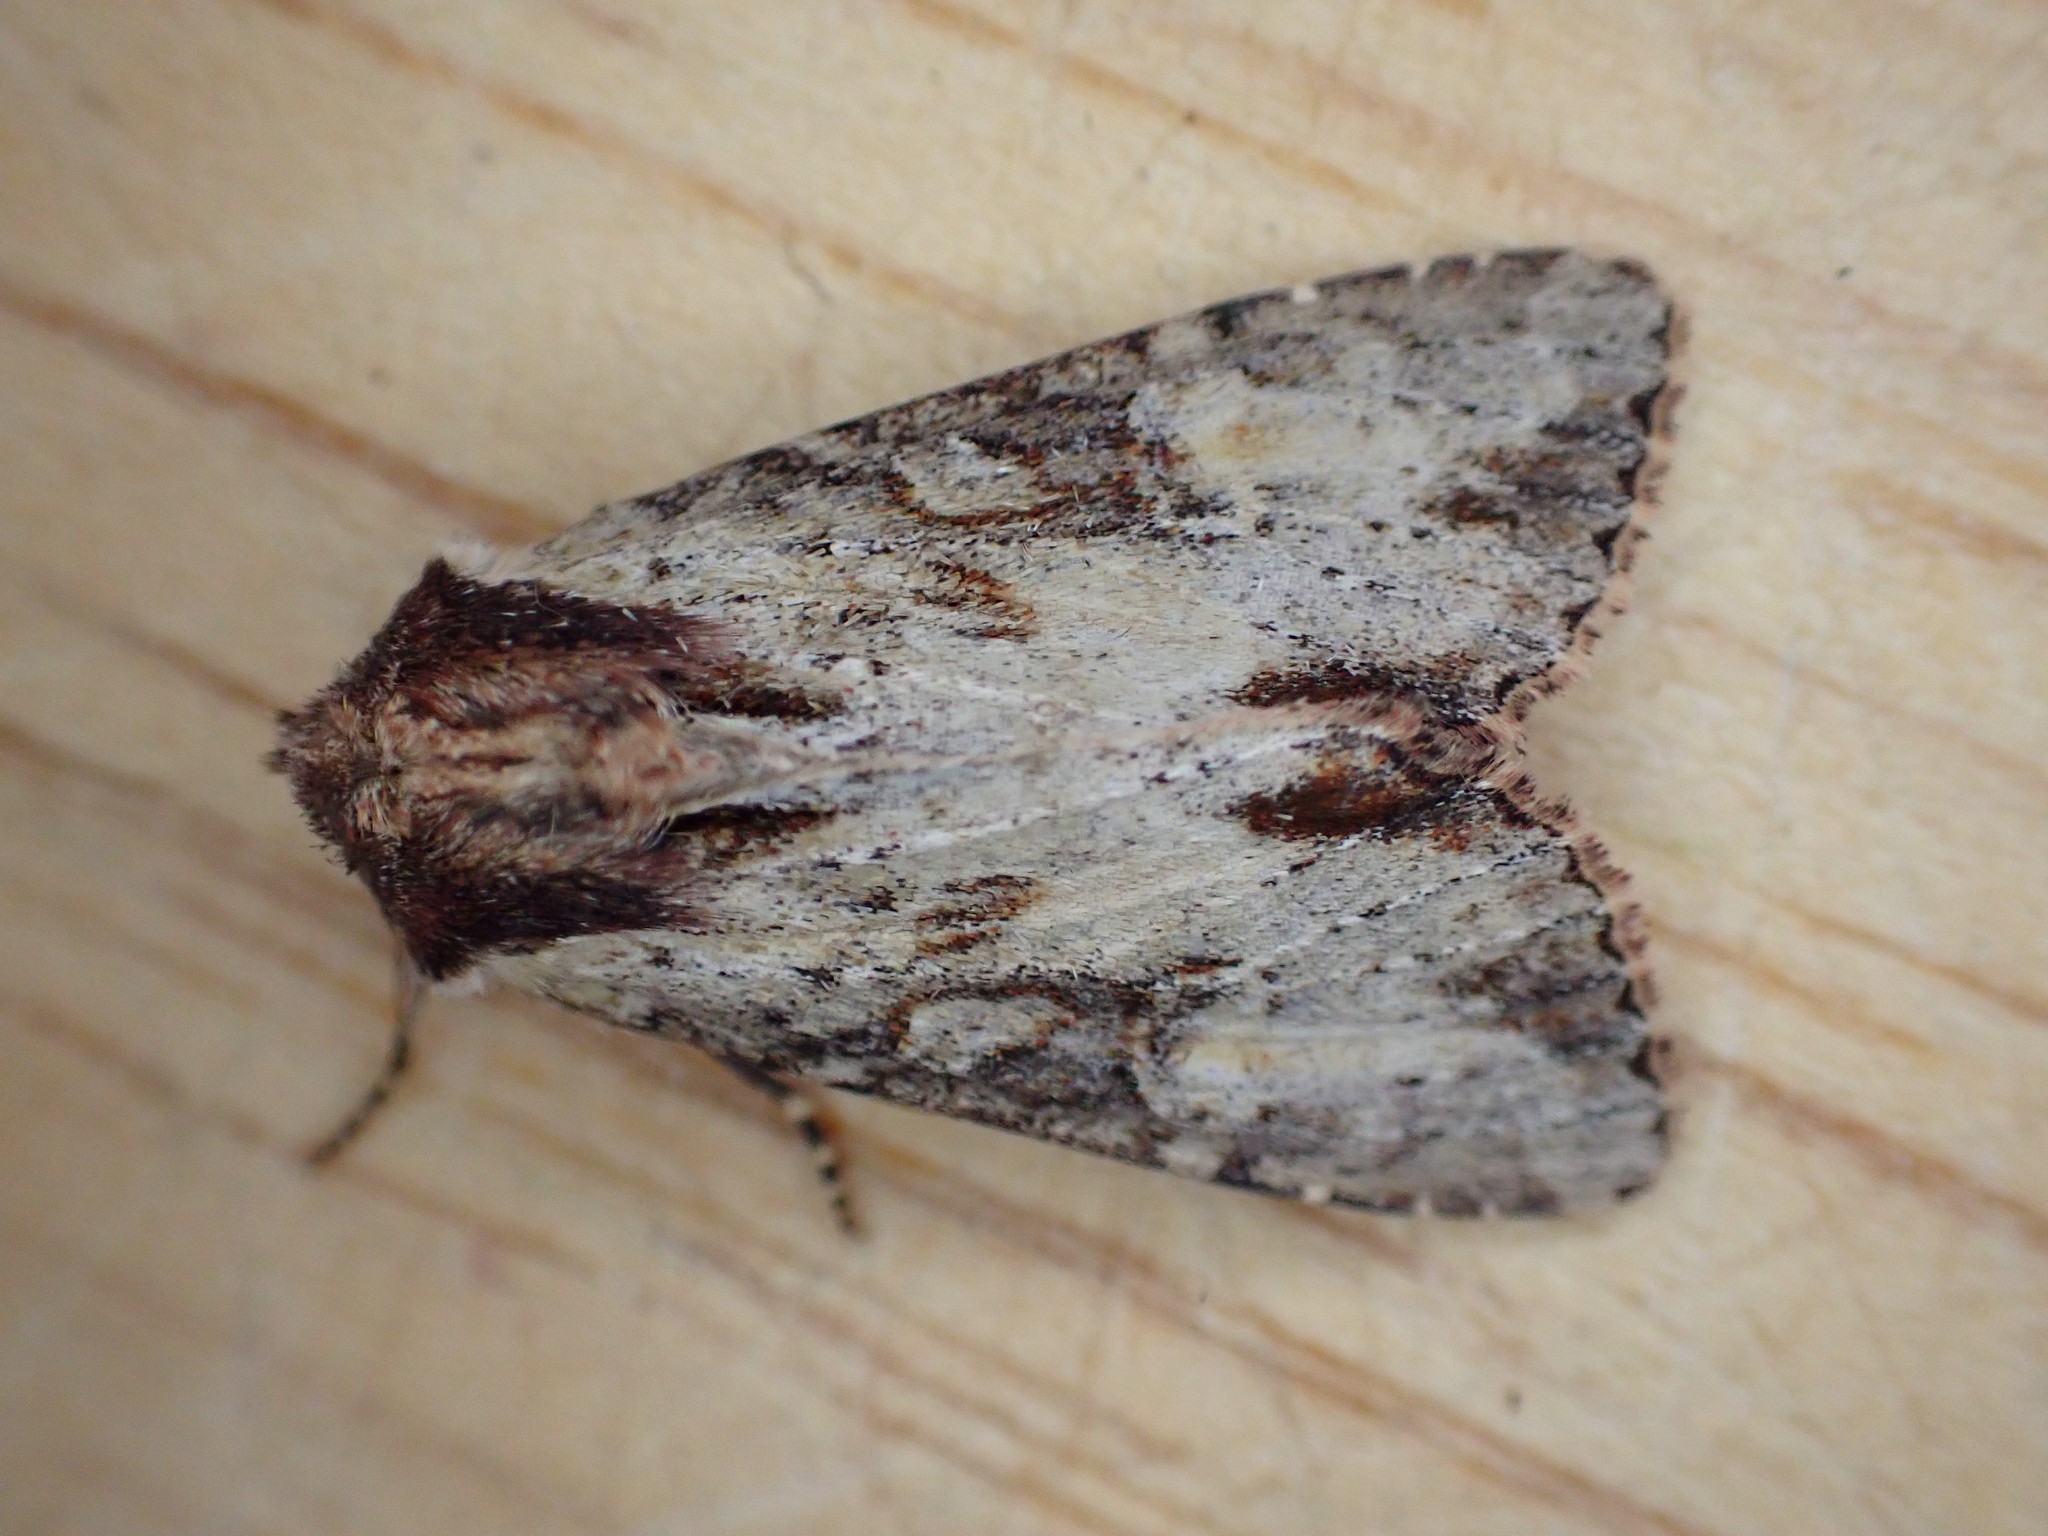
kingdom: Animalia
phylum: Arthropoda
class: Insecta
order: Lepidoptera
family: Noctuidae
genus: Apamea
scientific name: Apamea crenata
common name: Clouded-bordered brindle
